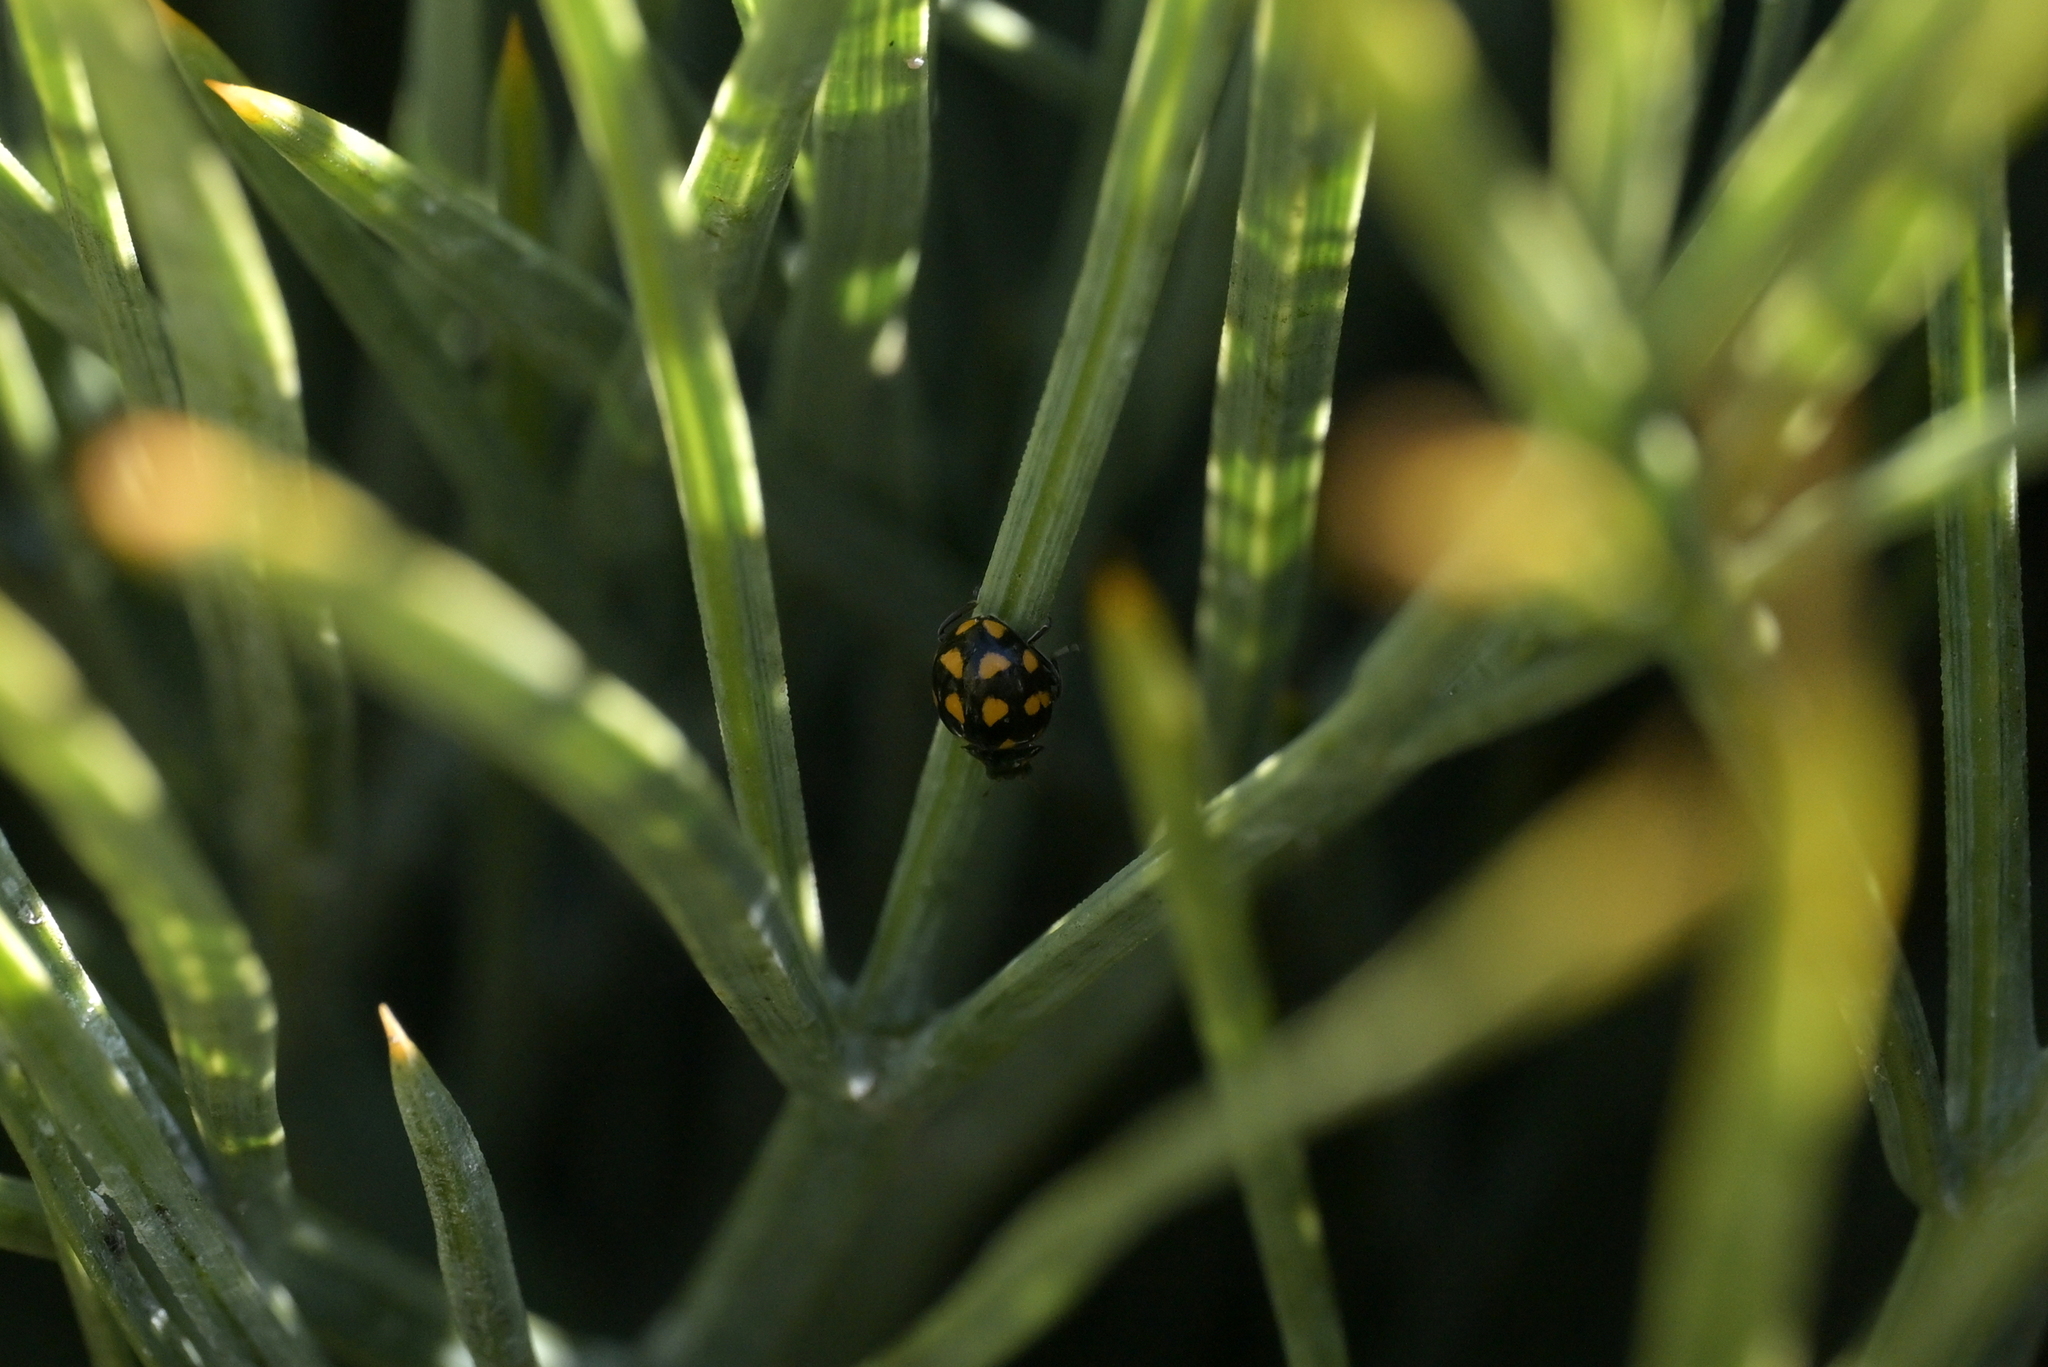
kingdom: Animalia
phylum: Arthropoda
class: Insecta
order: Coleoptera
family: Coccinellidae
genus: Coccinella
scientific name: Coccinella leonina
